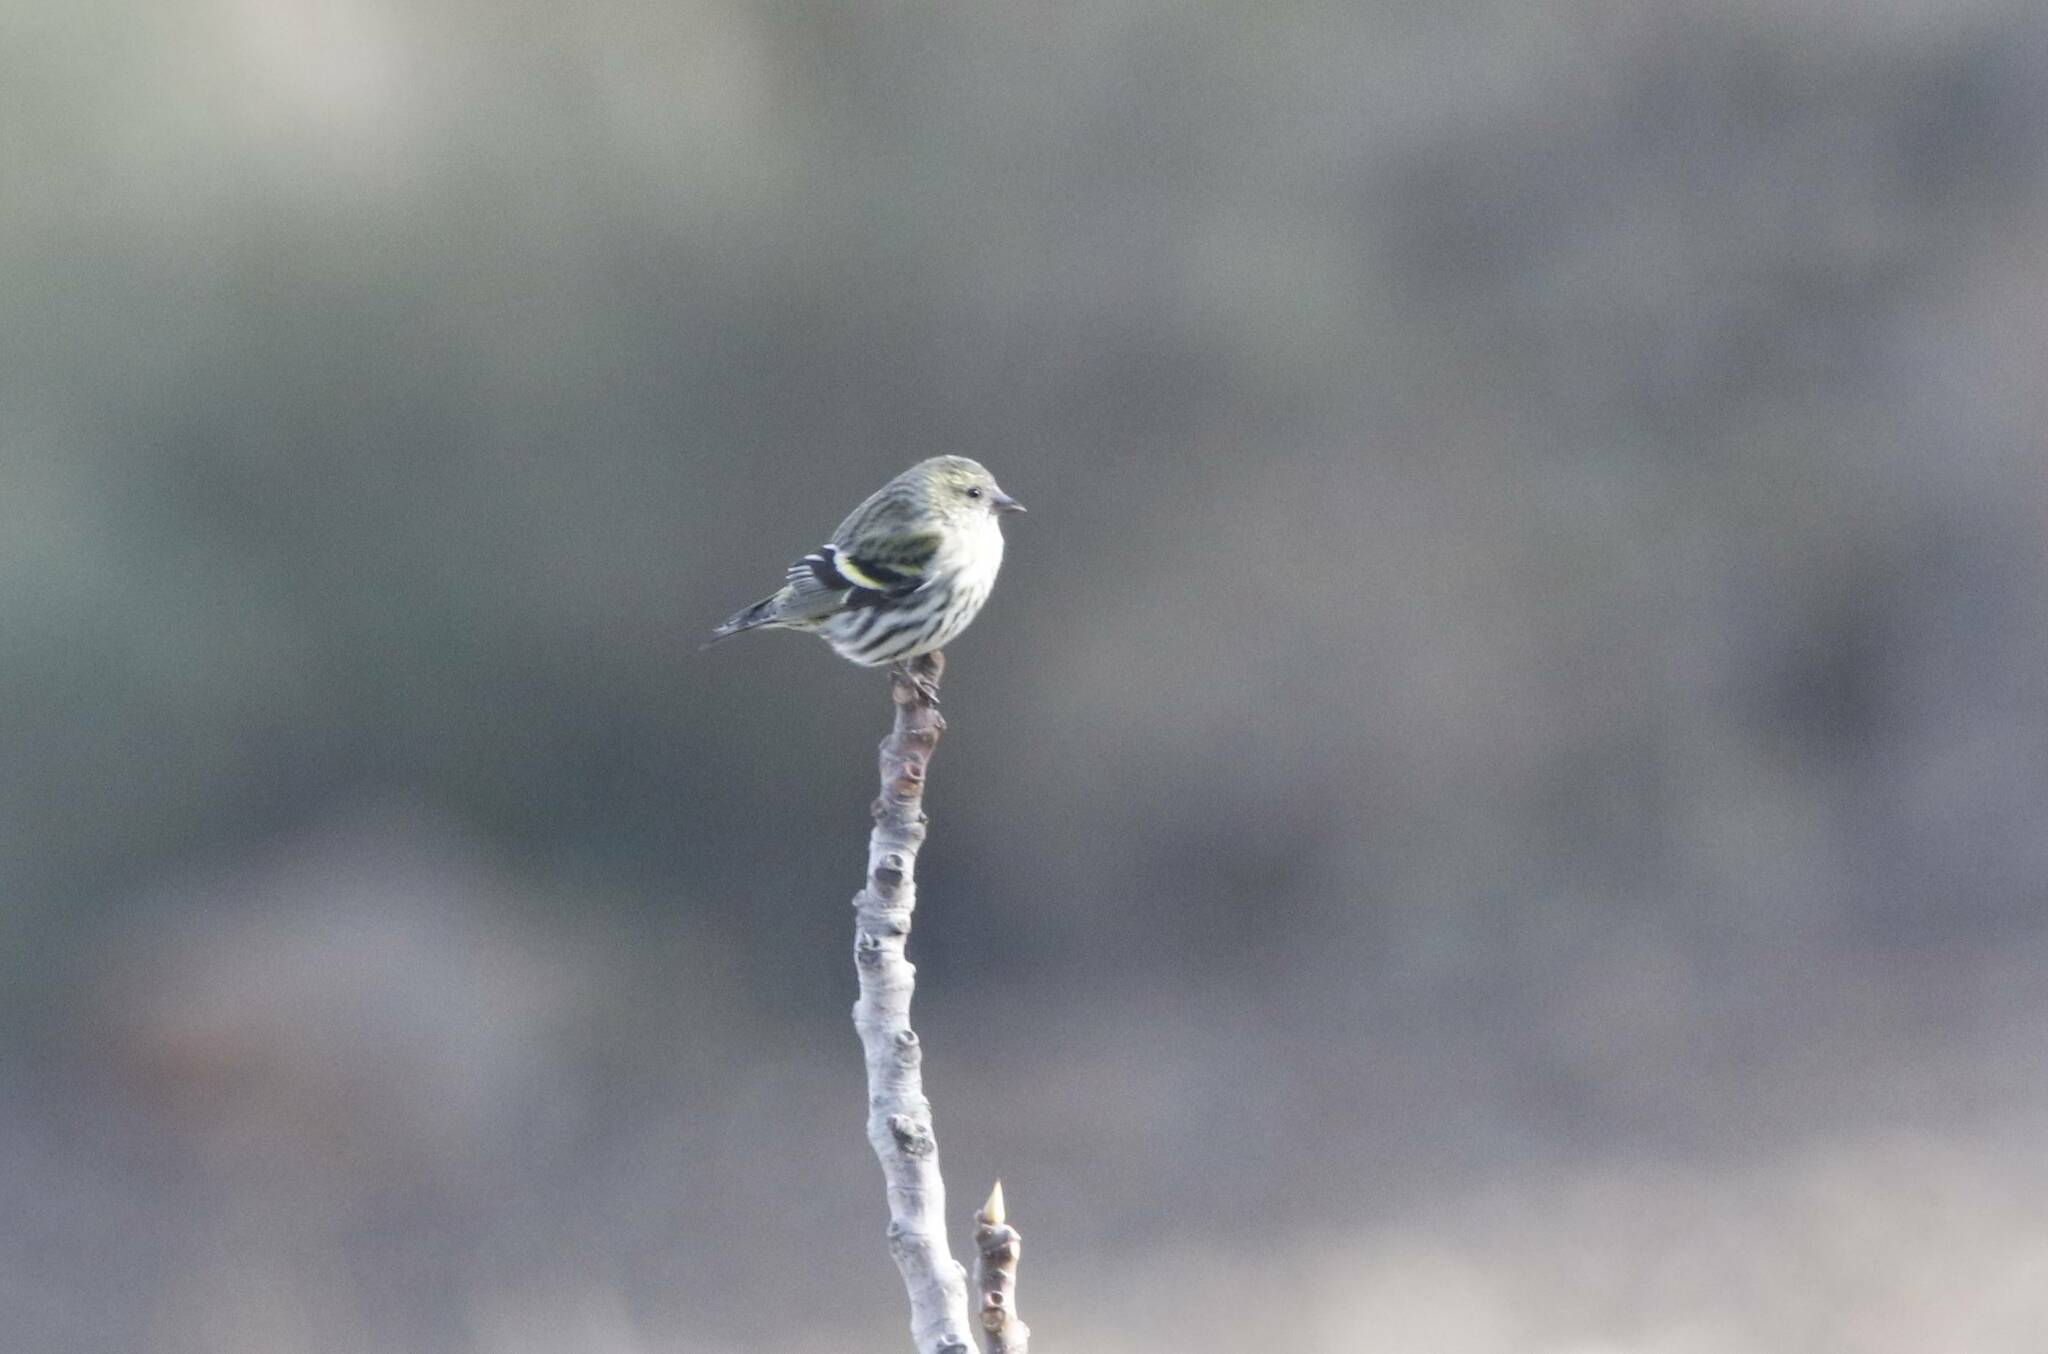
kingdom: Animalia
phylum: Chordata
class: Aves
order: Passeriformes
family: Fringillidae
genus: Spinus
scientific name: Spinus spinus
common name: Eurasian siskin
